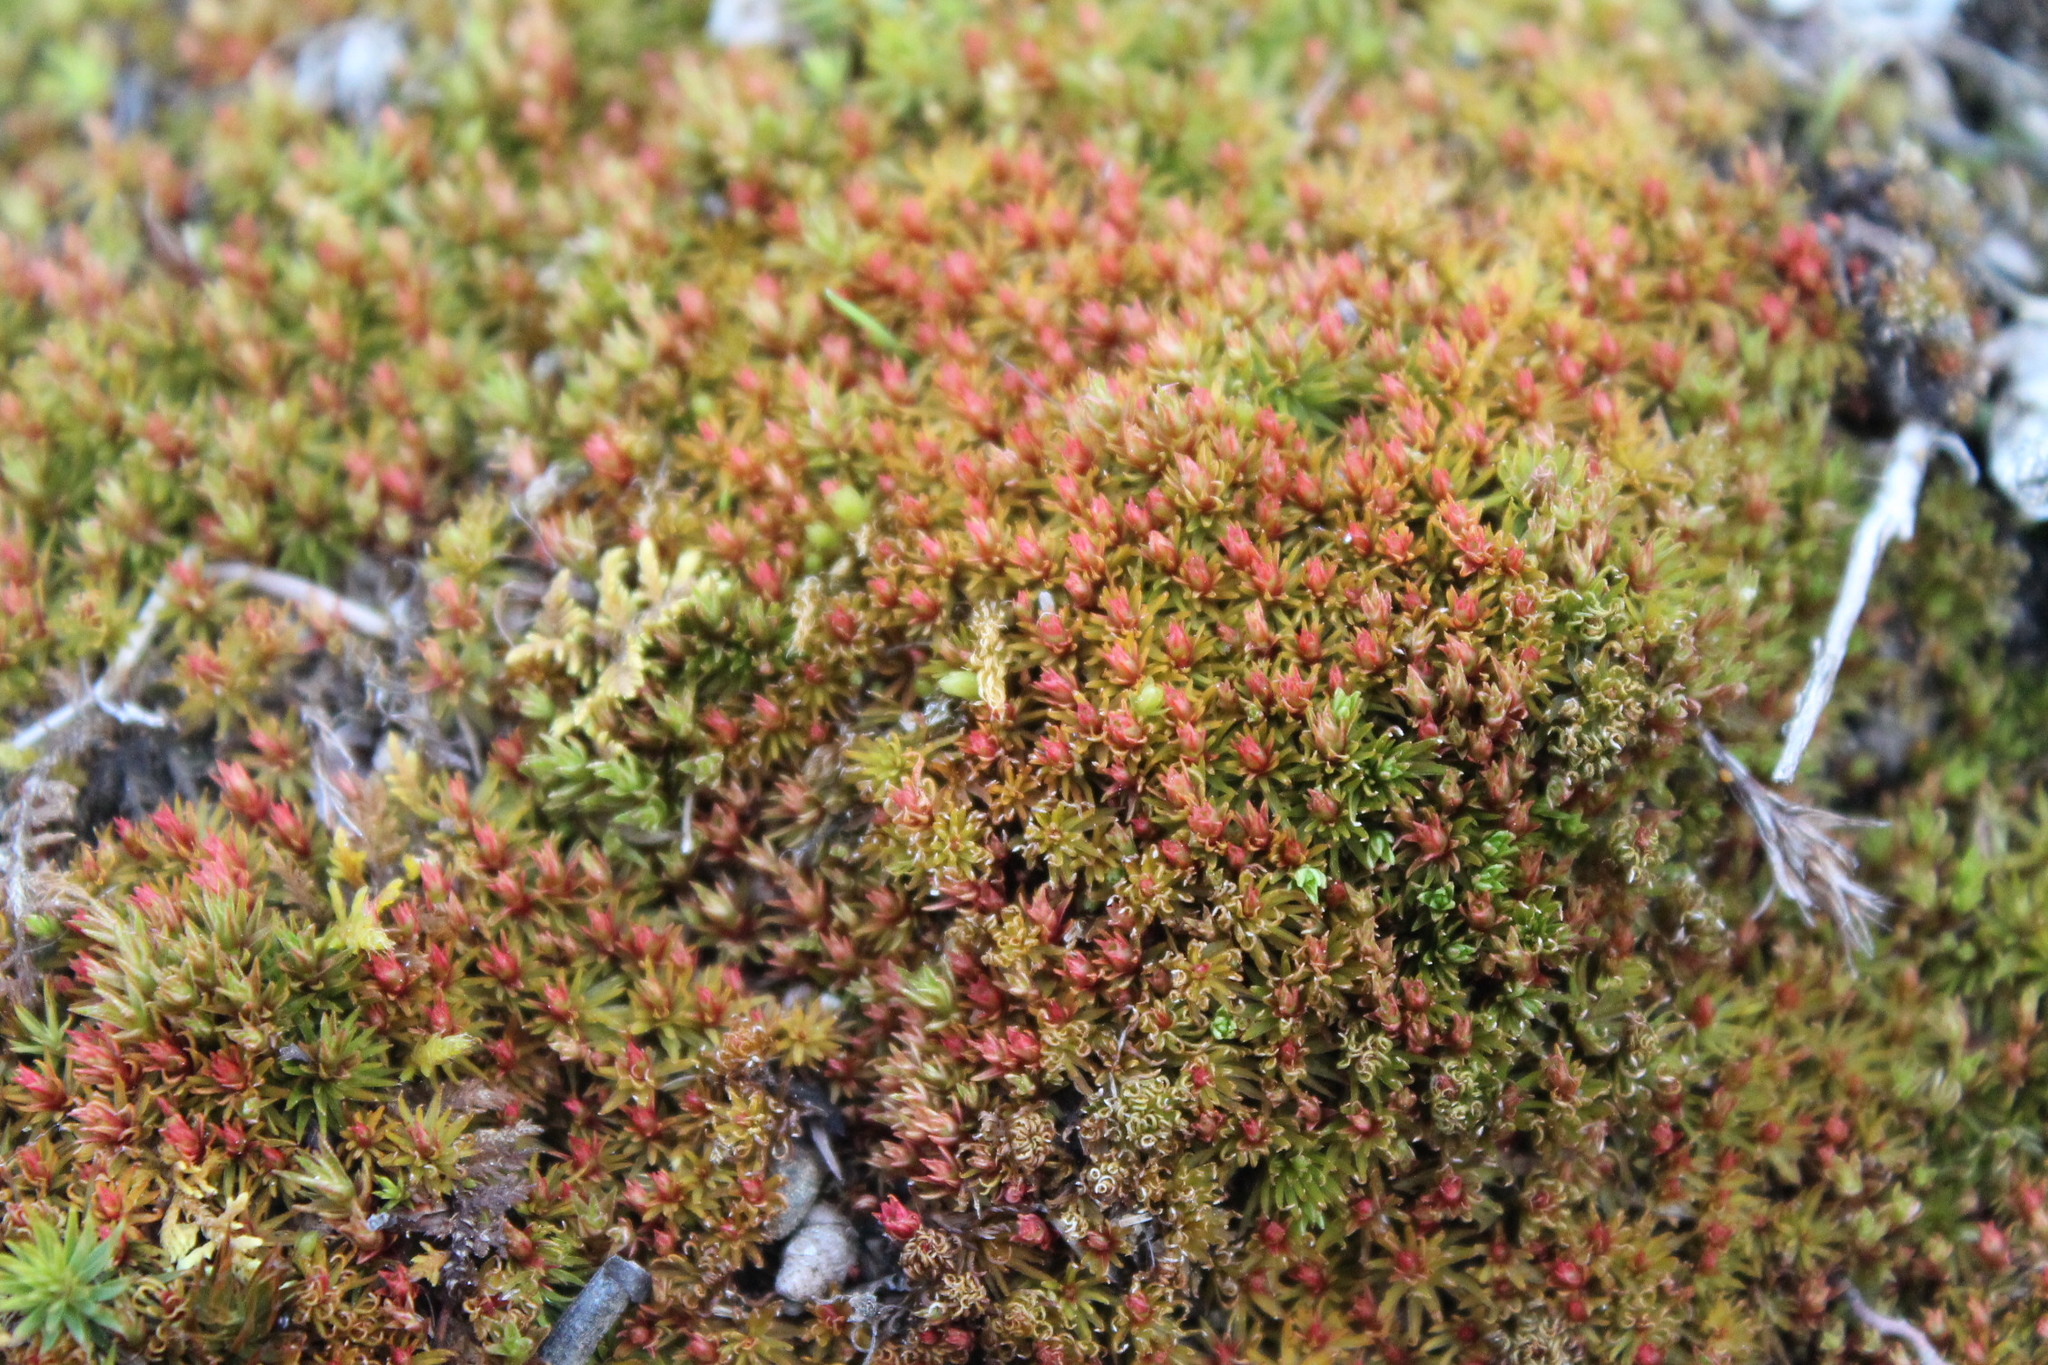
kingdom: Plantae
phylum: Bryophyta
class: Polytrichopsida
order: Polytrichales
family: Polytrichaceae
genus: Atrichum
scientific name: Atrichum angustatum
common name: Lesser smoothcap
